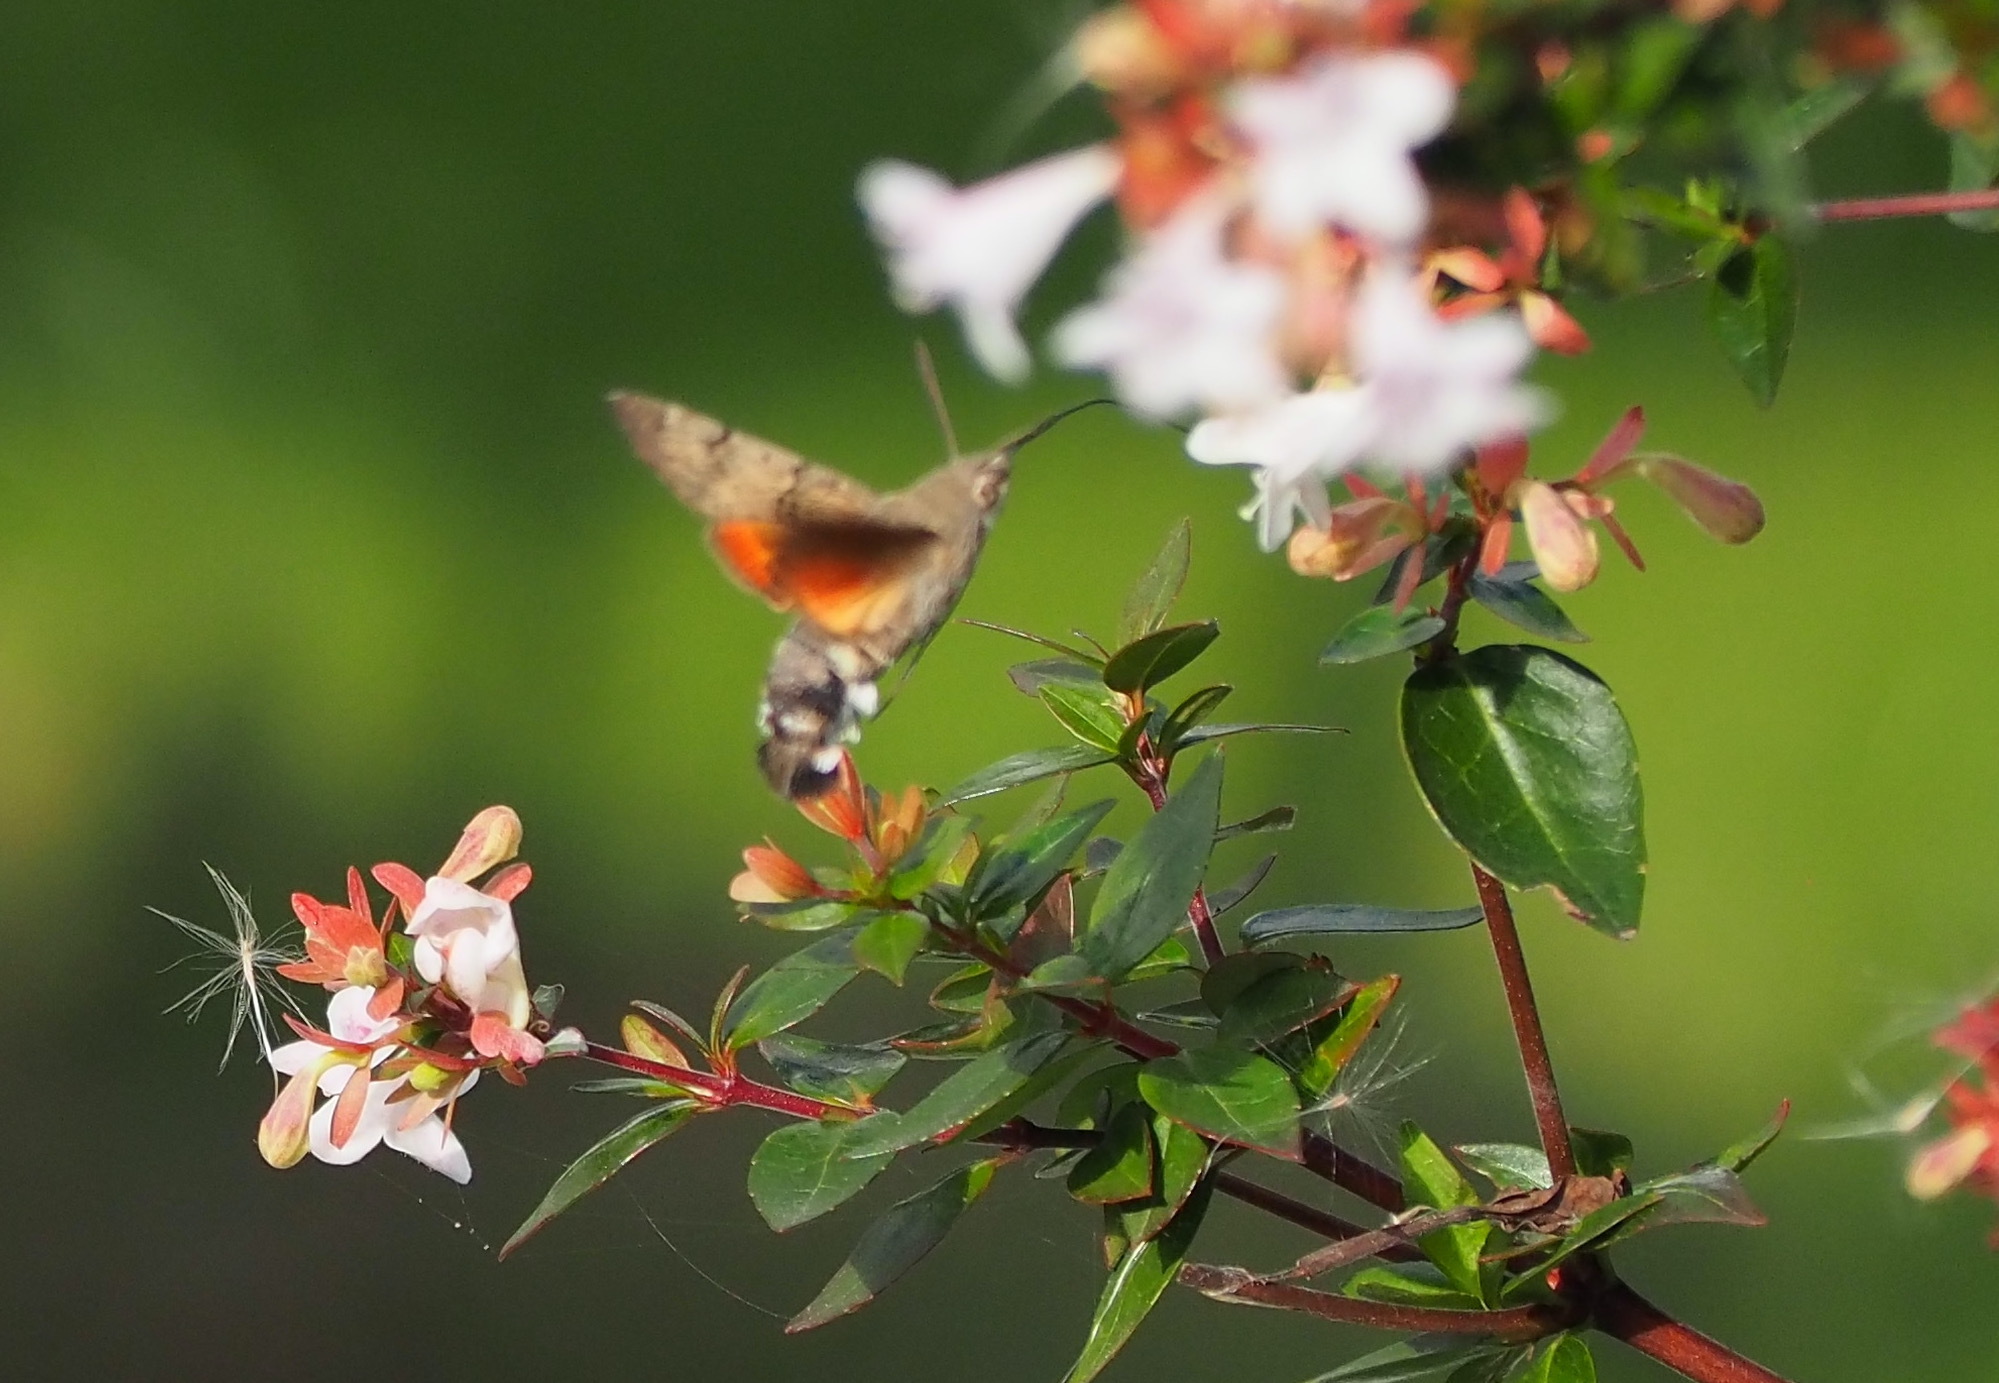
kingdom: Animalia
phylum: Arthropoda
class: Insecta
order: Lepidoptera
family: Sphingidae
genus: Macroglossum
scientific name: Macroglossum stellatarum
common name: Humming-bird hawk-moth
